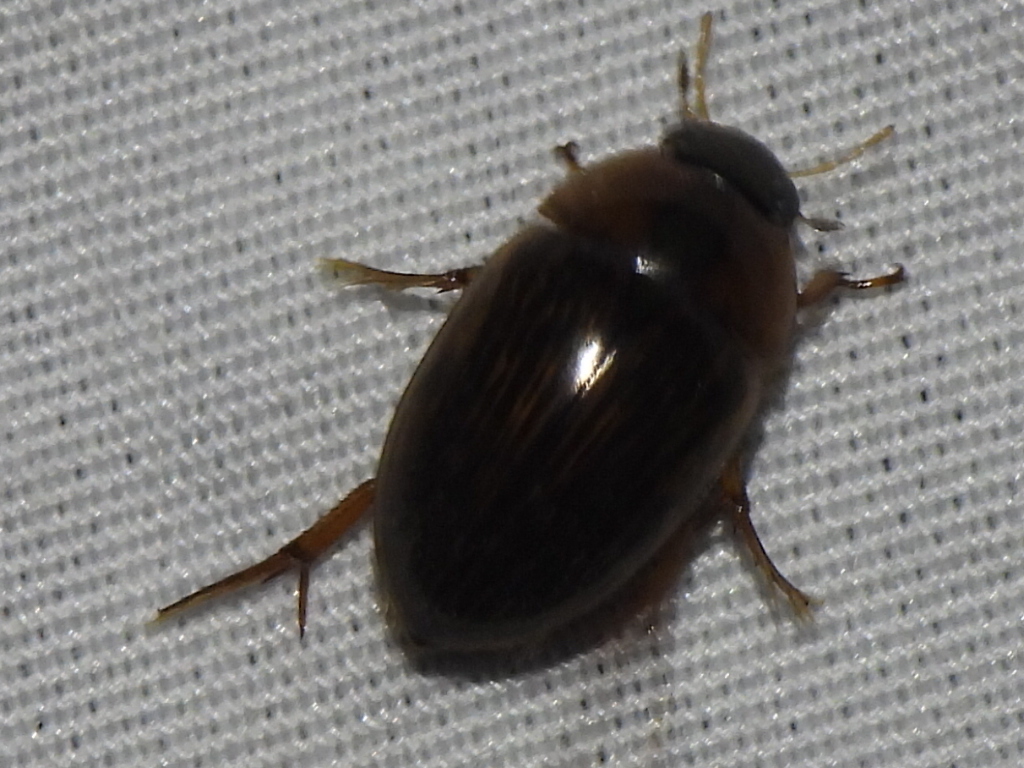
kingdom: Animalia
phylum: Arthropoda
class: Insecta
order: Coleoptera
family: Hydrophilidae
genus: Tropisternus
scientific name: Tropisternus collaris
